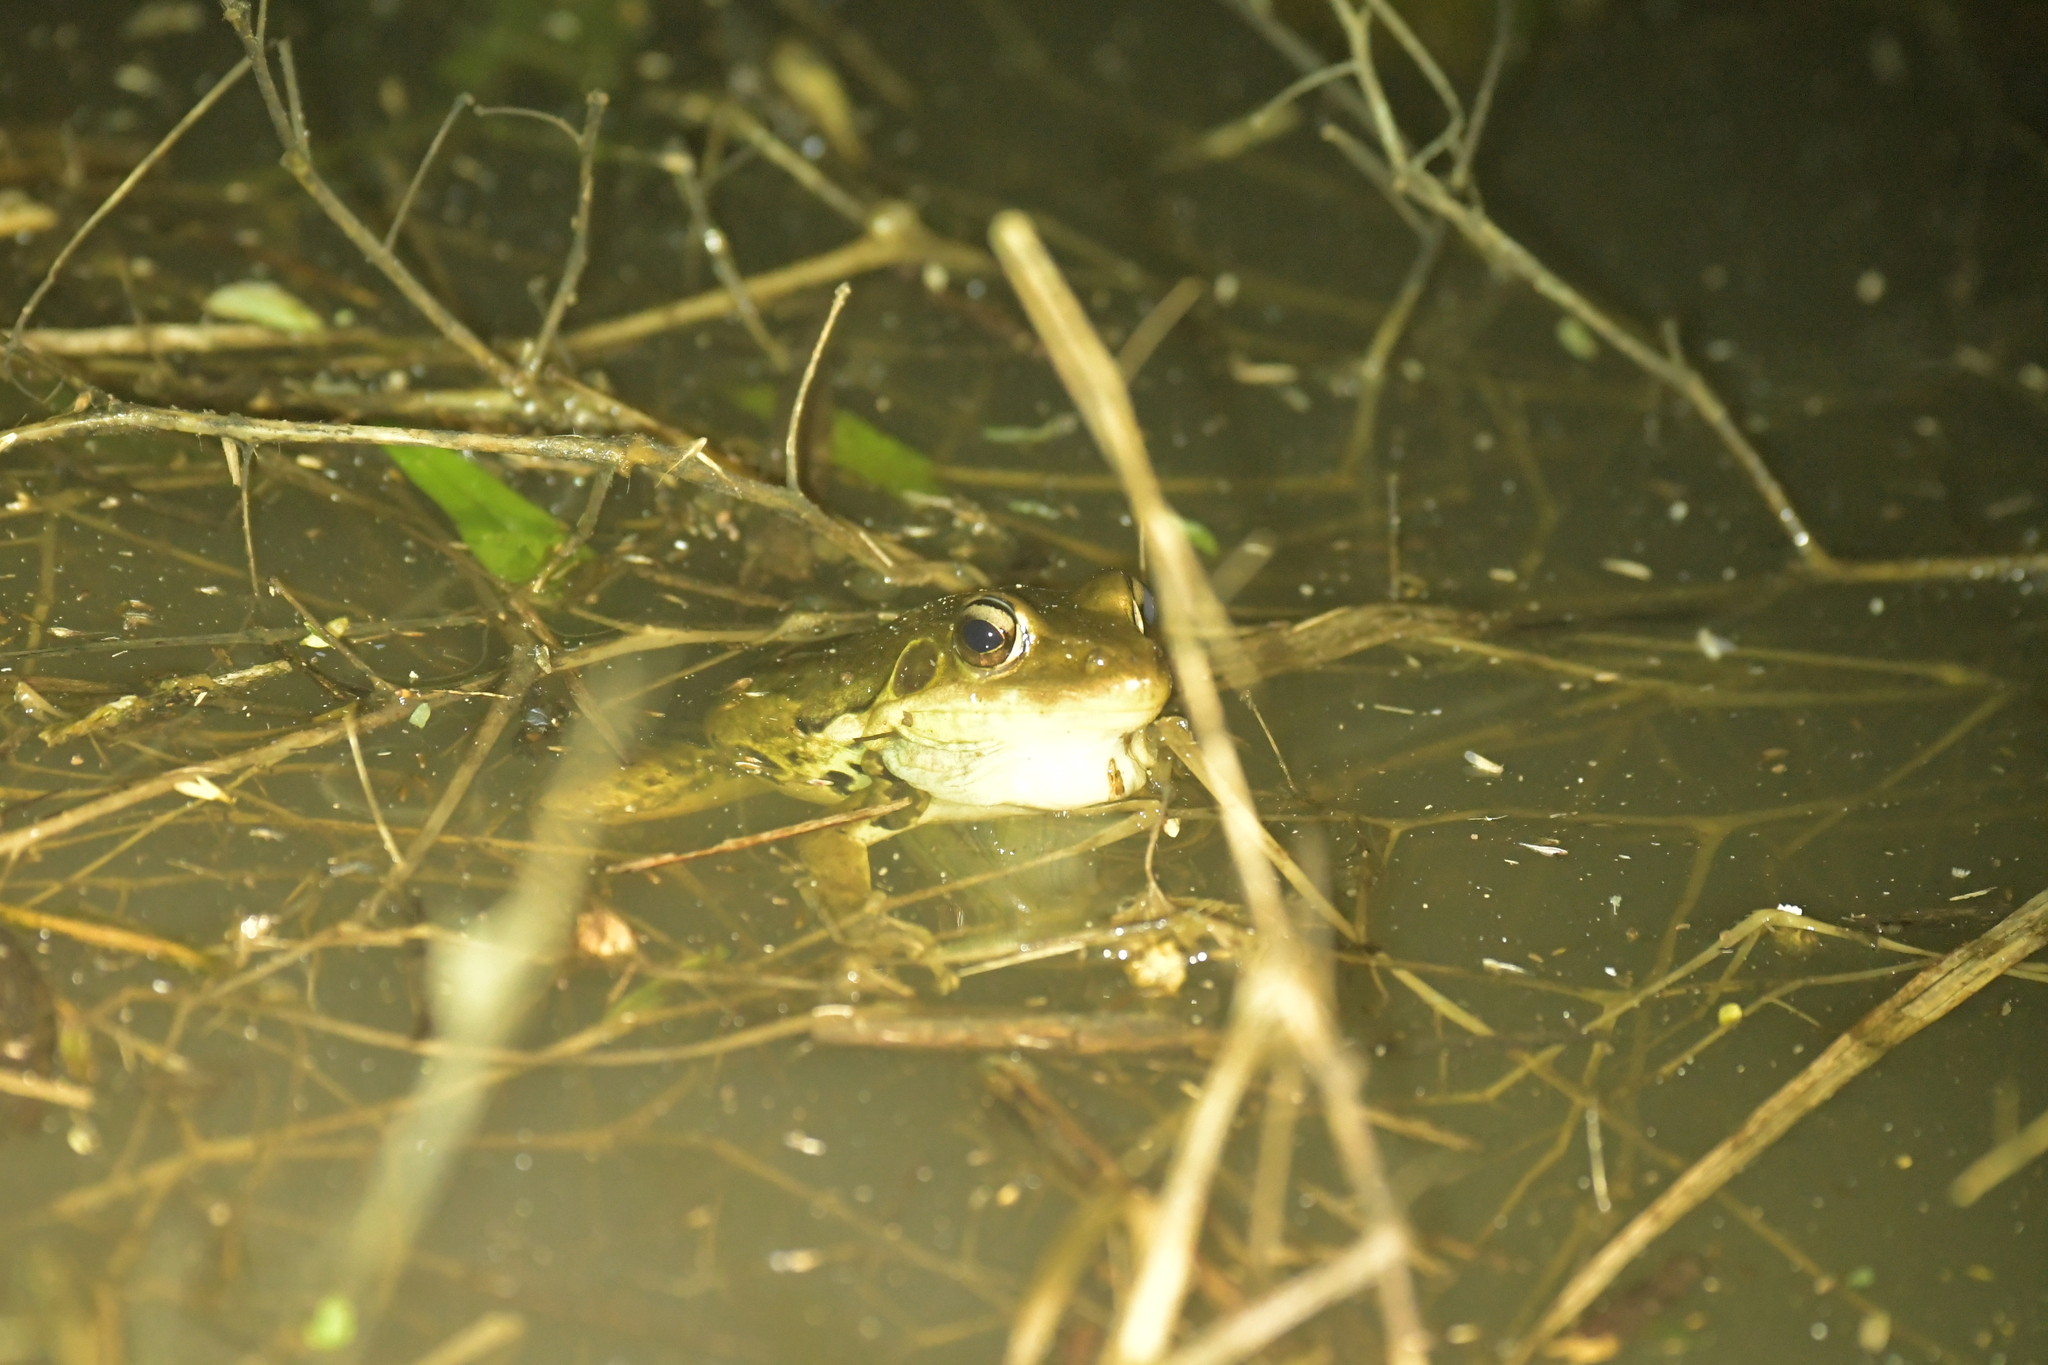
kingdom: Animalia
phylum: Chordata
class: Amphibia
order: Anura
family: Ranidae
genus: Sylvirana
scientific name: Sylvirana guentheri
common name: Guenther's amoy frog
